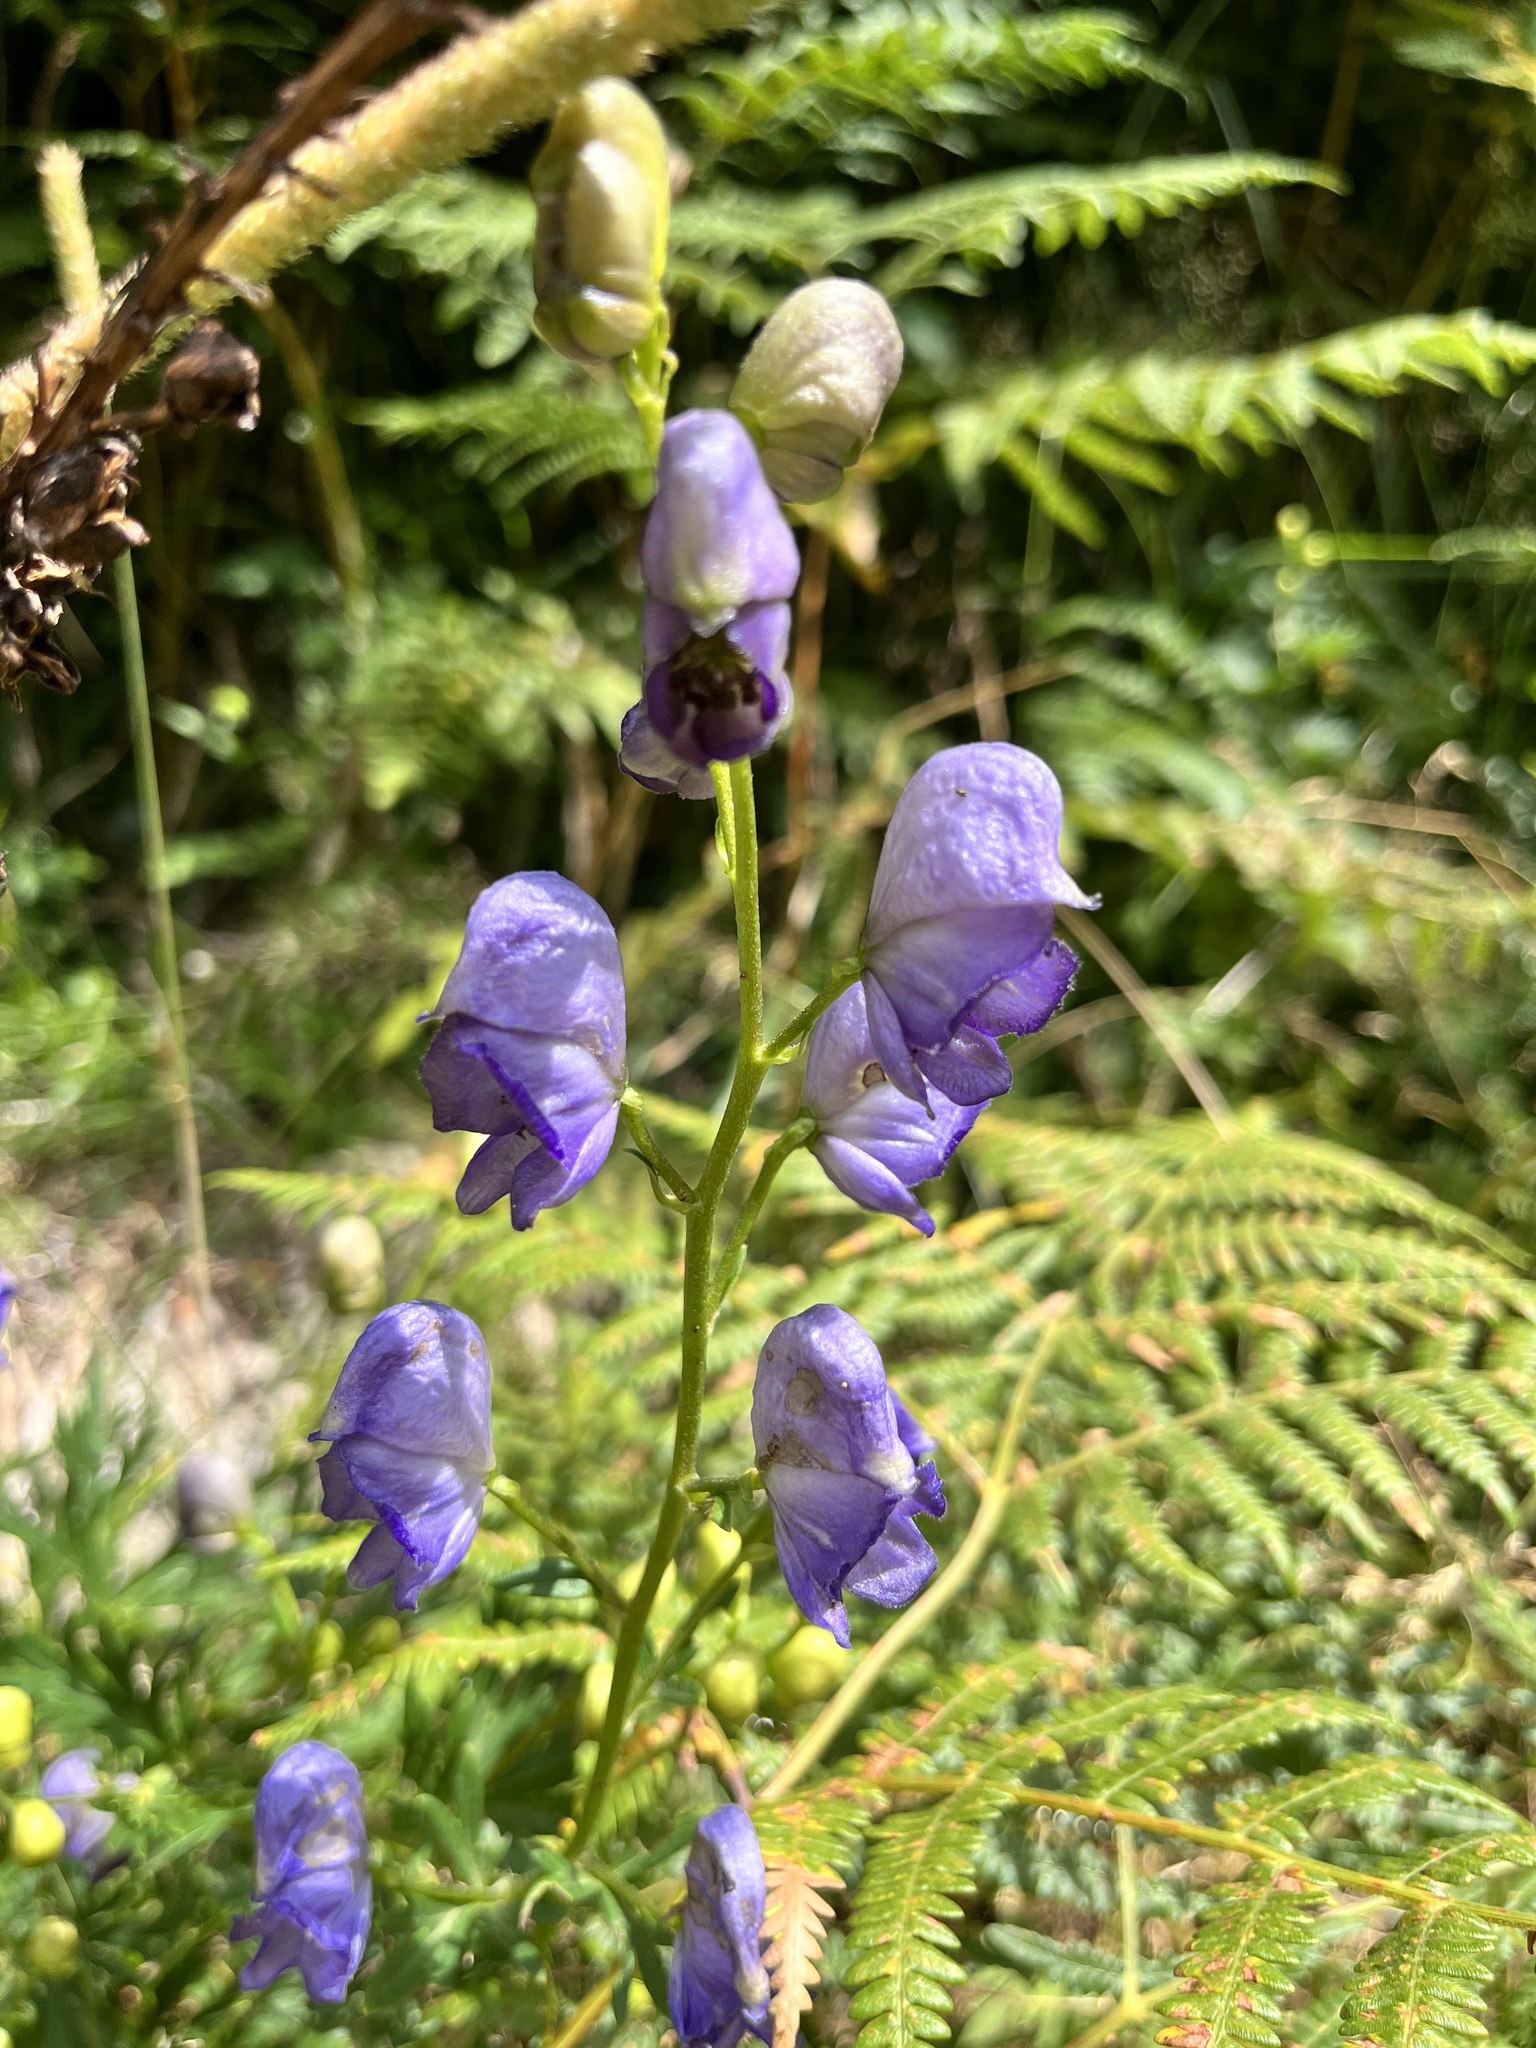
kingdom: Plantae
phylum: Tracheophyta
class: Magnoliopsida
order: Ranunculales
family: Ranunculaceae
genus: Aconitum
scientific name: Aconitum napellus
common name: Garden monkshood
